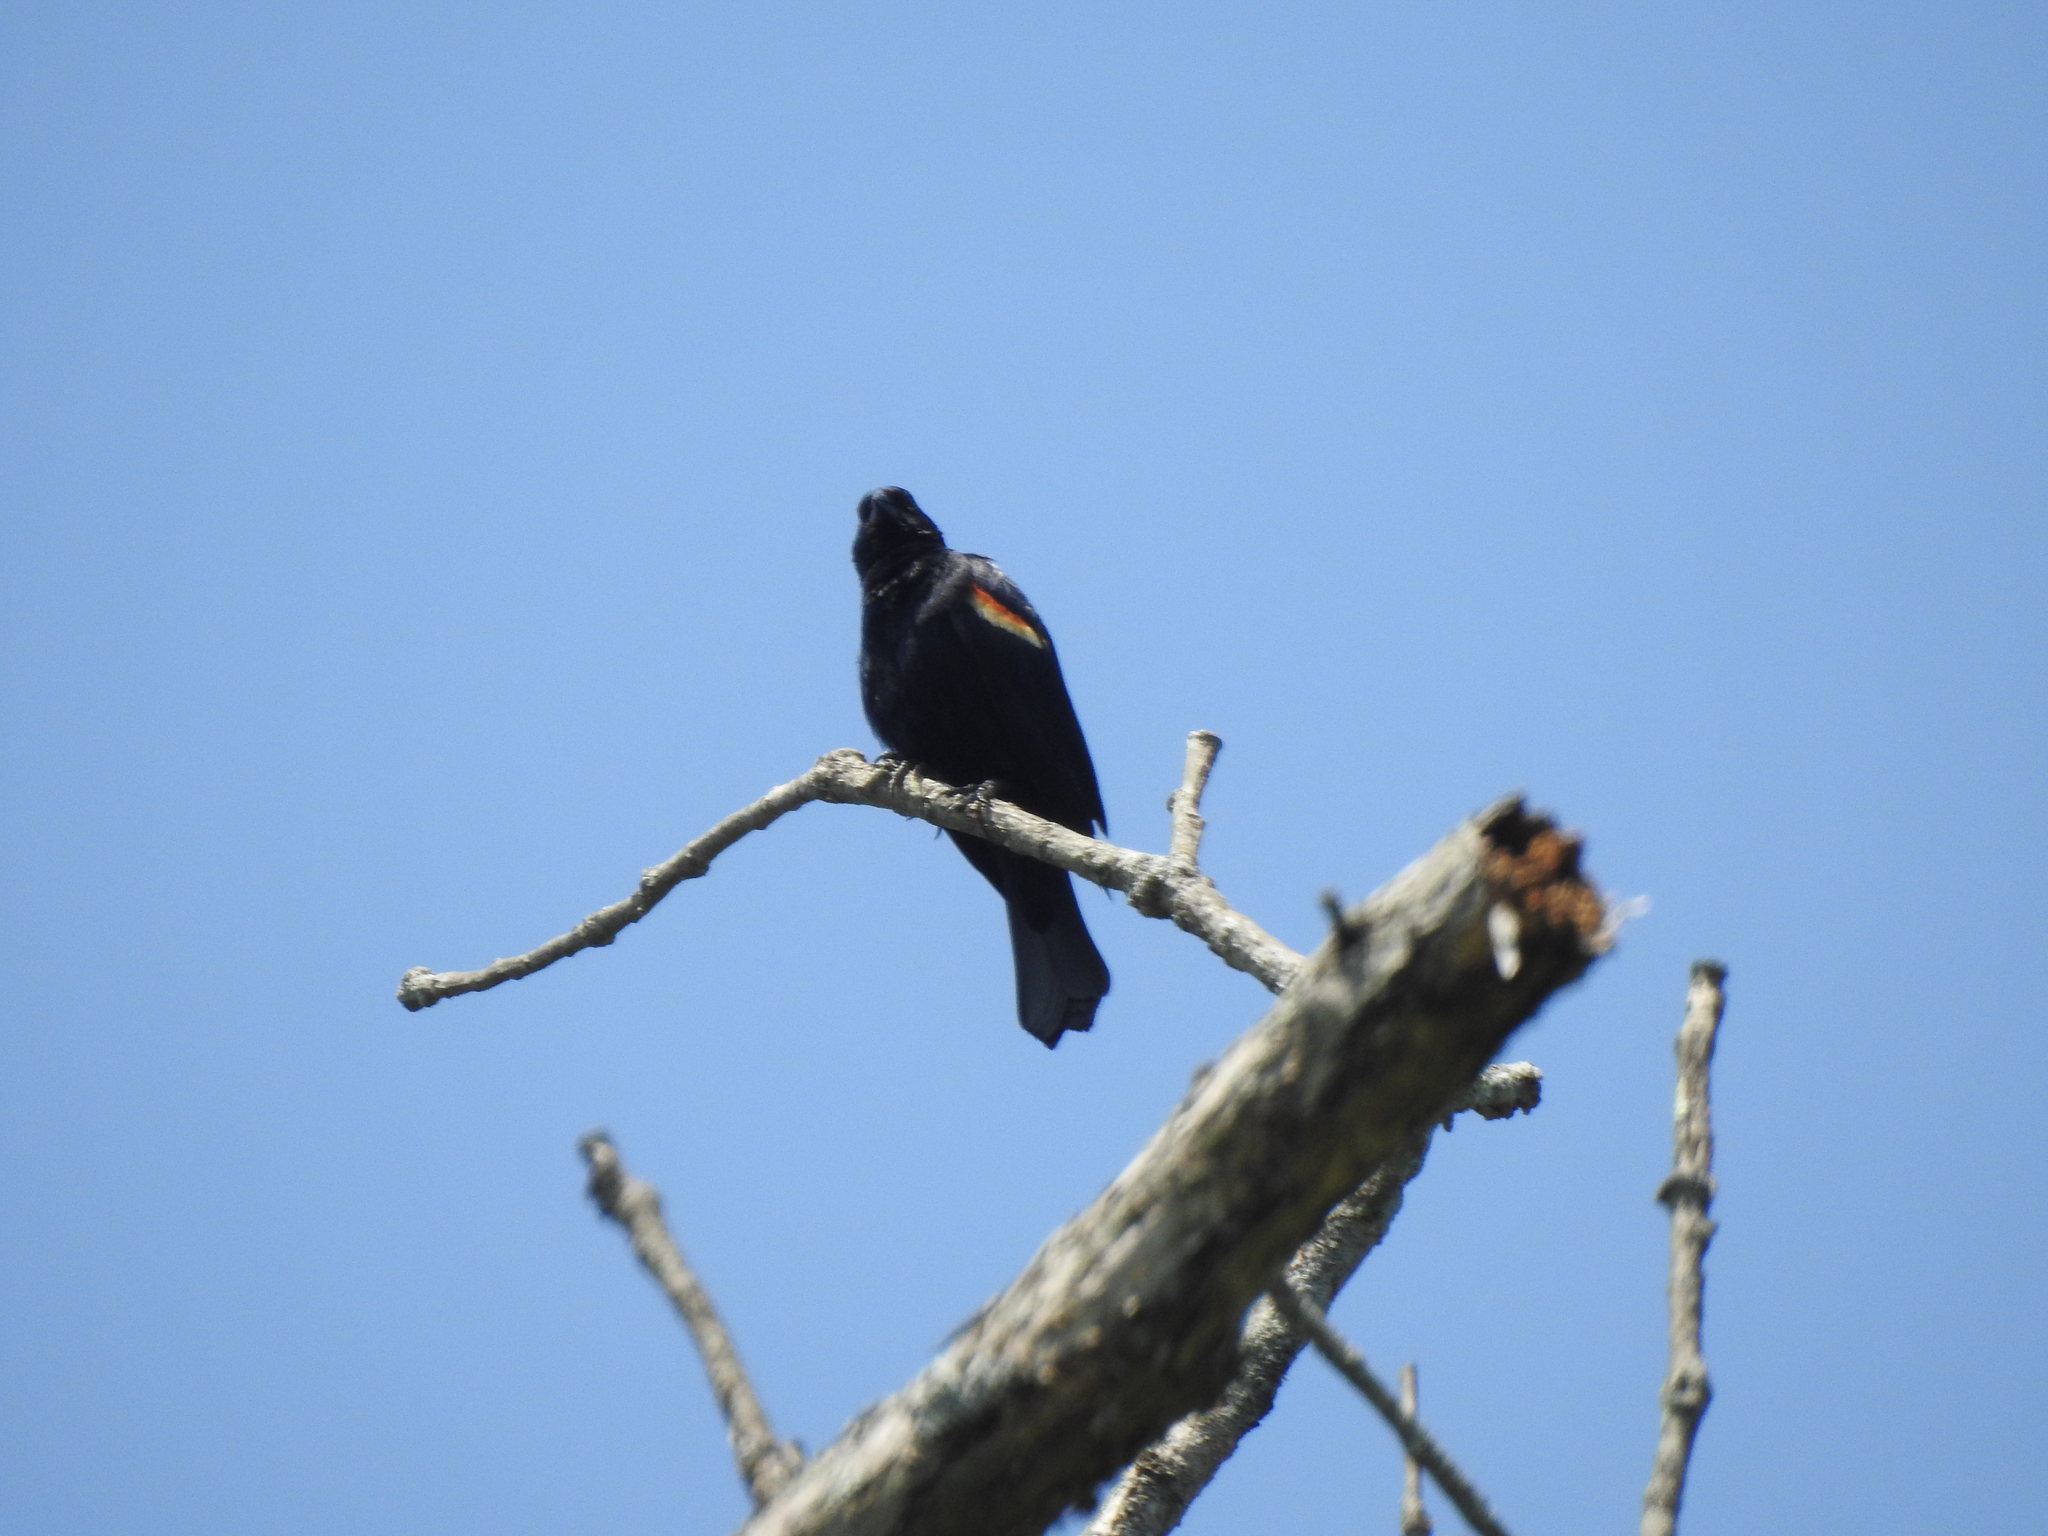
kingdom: Animalia
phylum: Chordata
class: Aves
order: Passeriformes
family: Icteridae
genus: Agelaius
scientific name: Agelaius phoeniceus
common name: Red-winged blackbird
